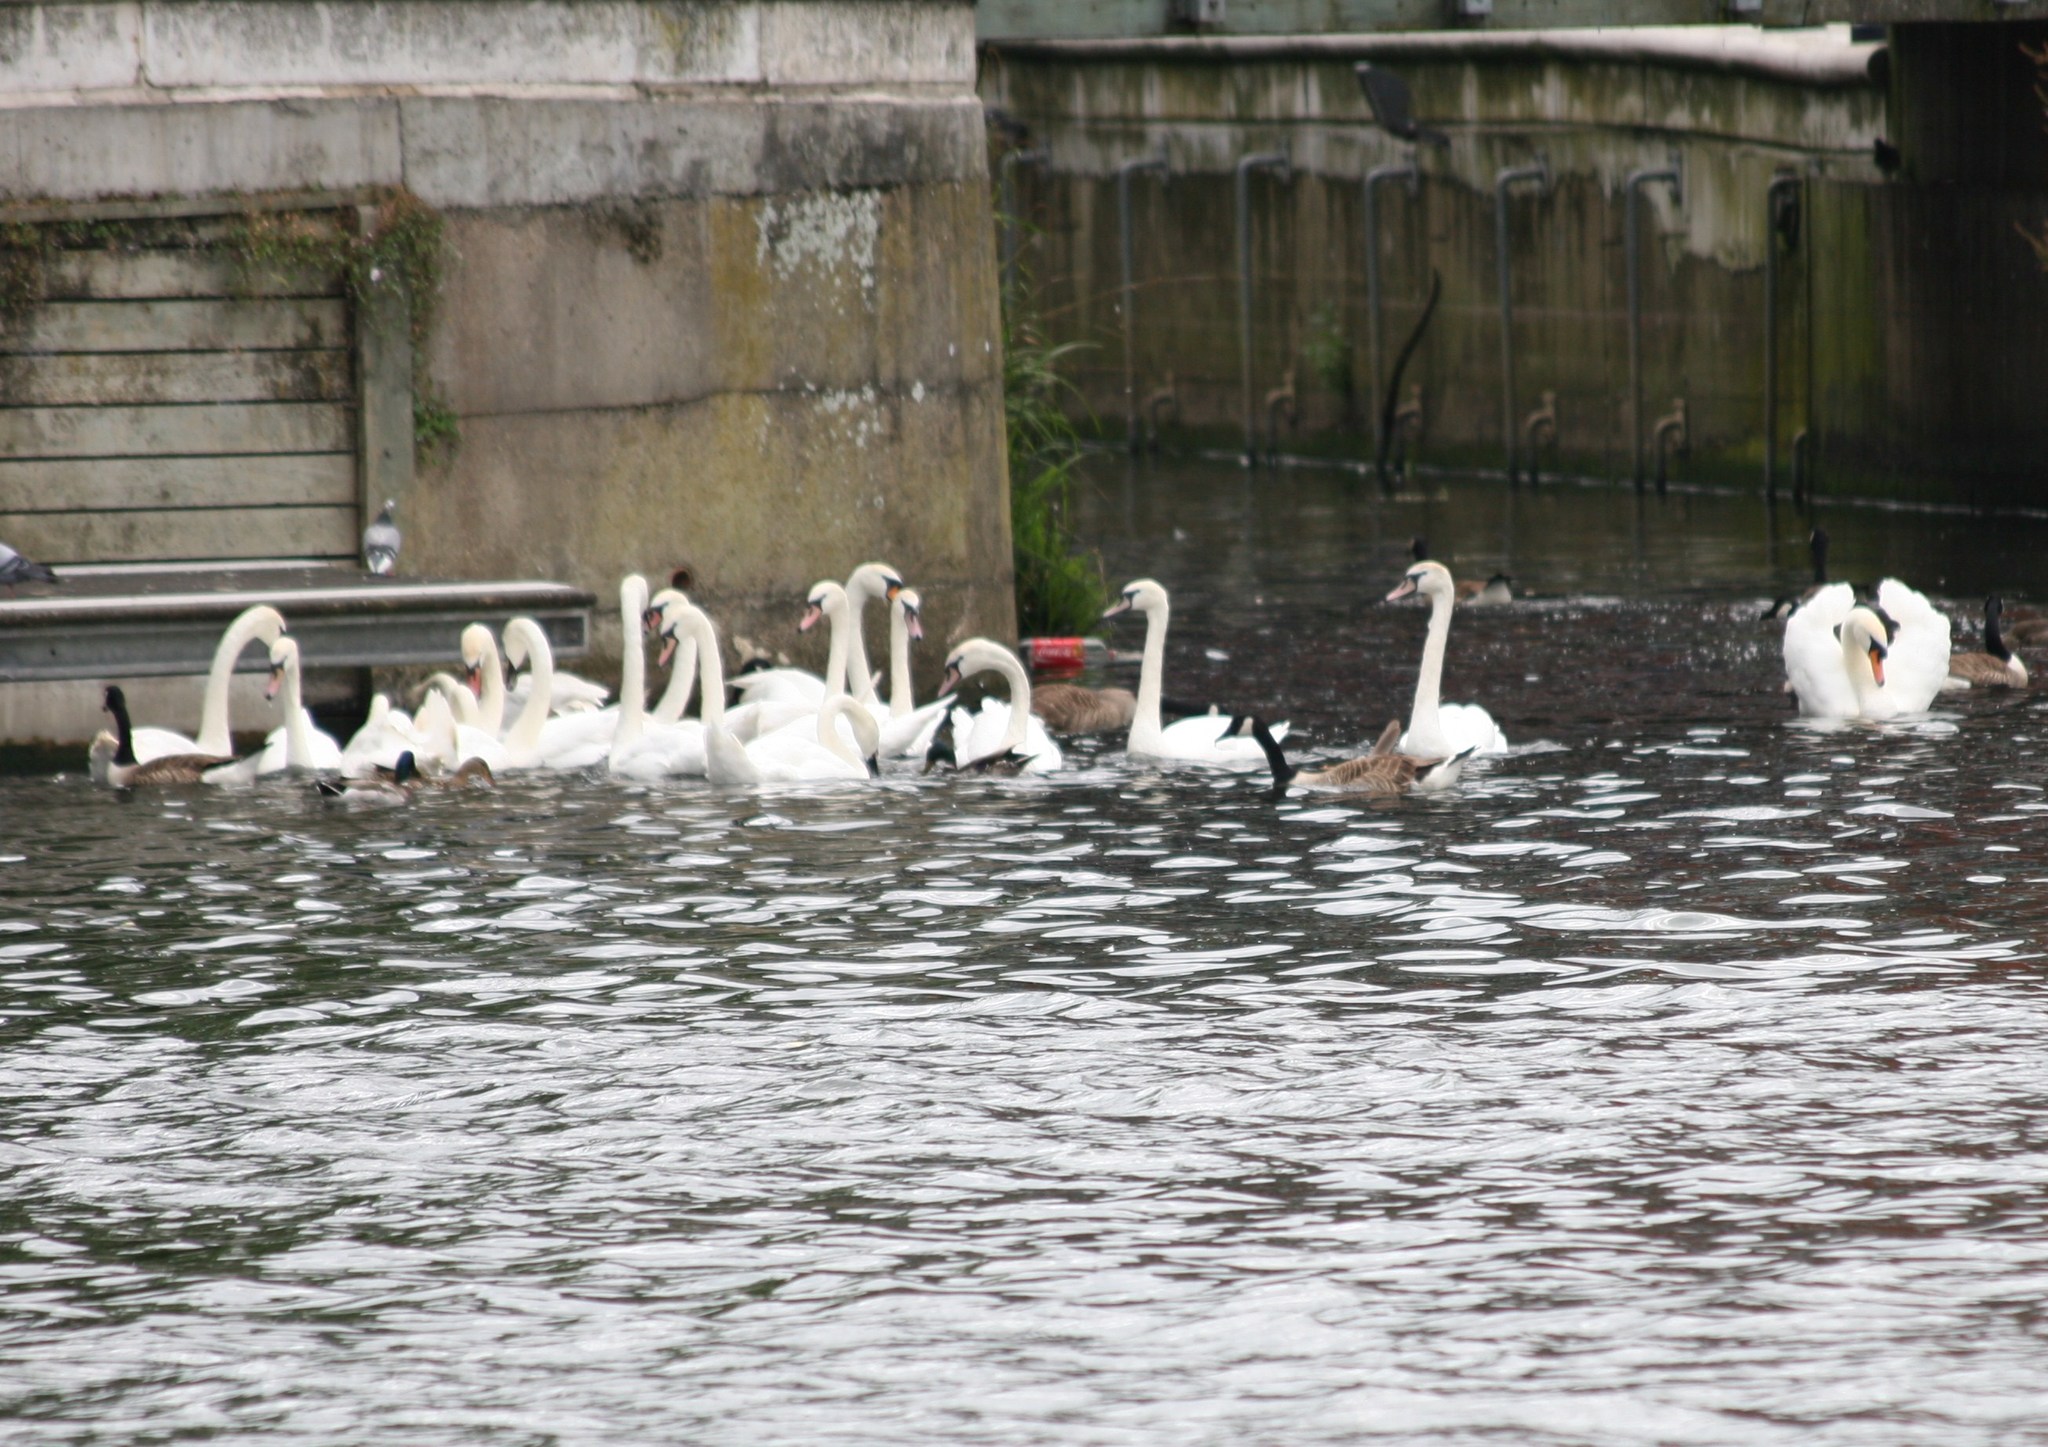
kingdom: Animalia
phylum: Chordata
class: Aves
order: Anseriformes
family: Anatidae
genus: Cygnus
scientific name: Cygnus olor
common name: Mute swan
